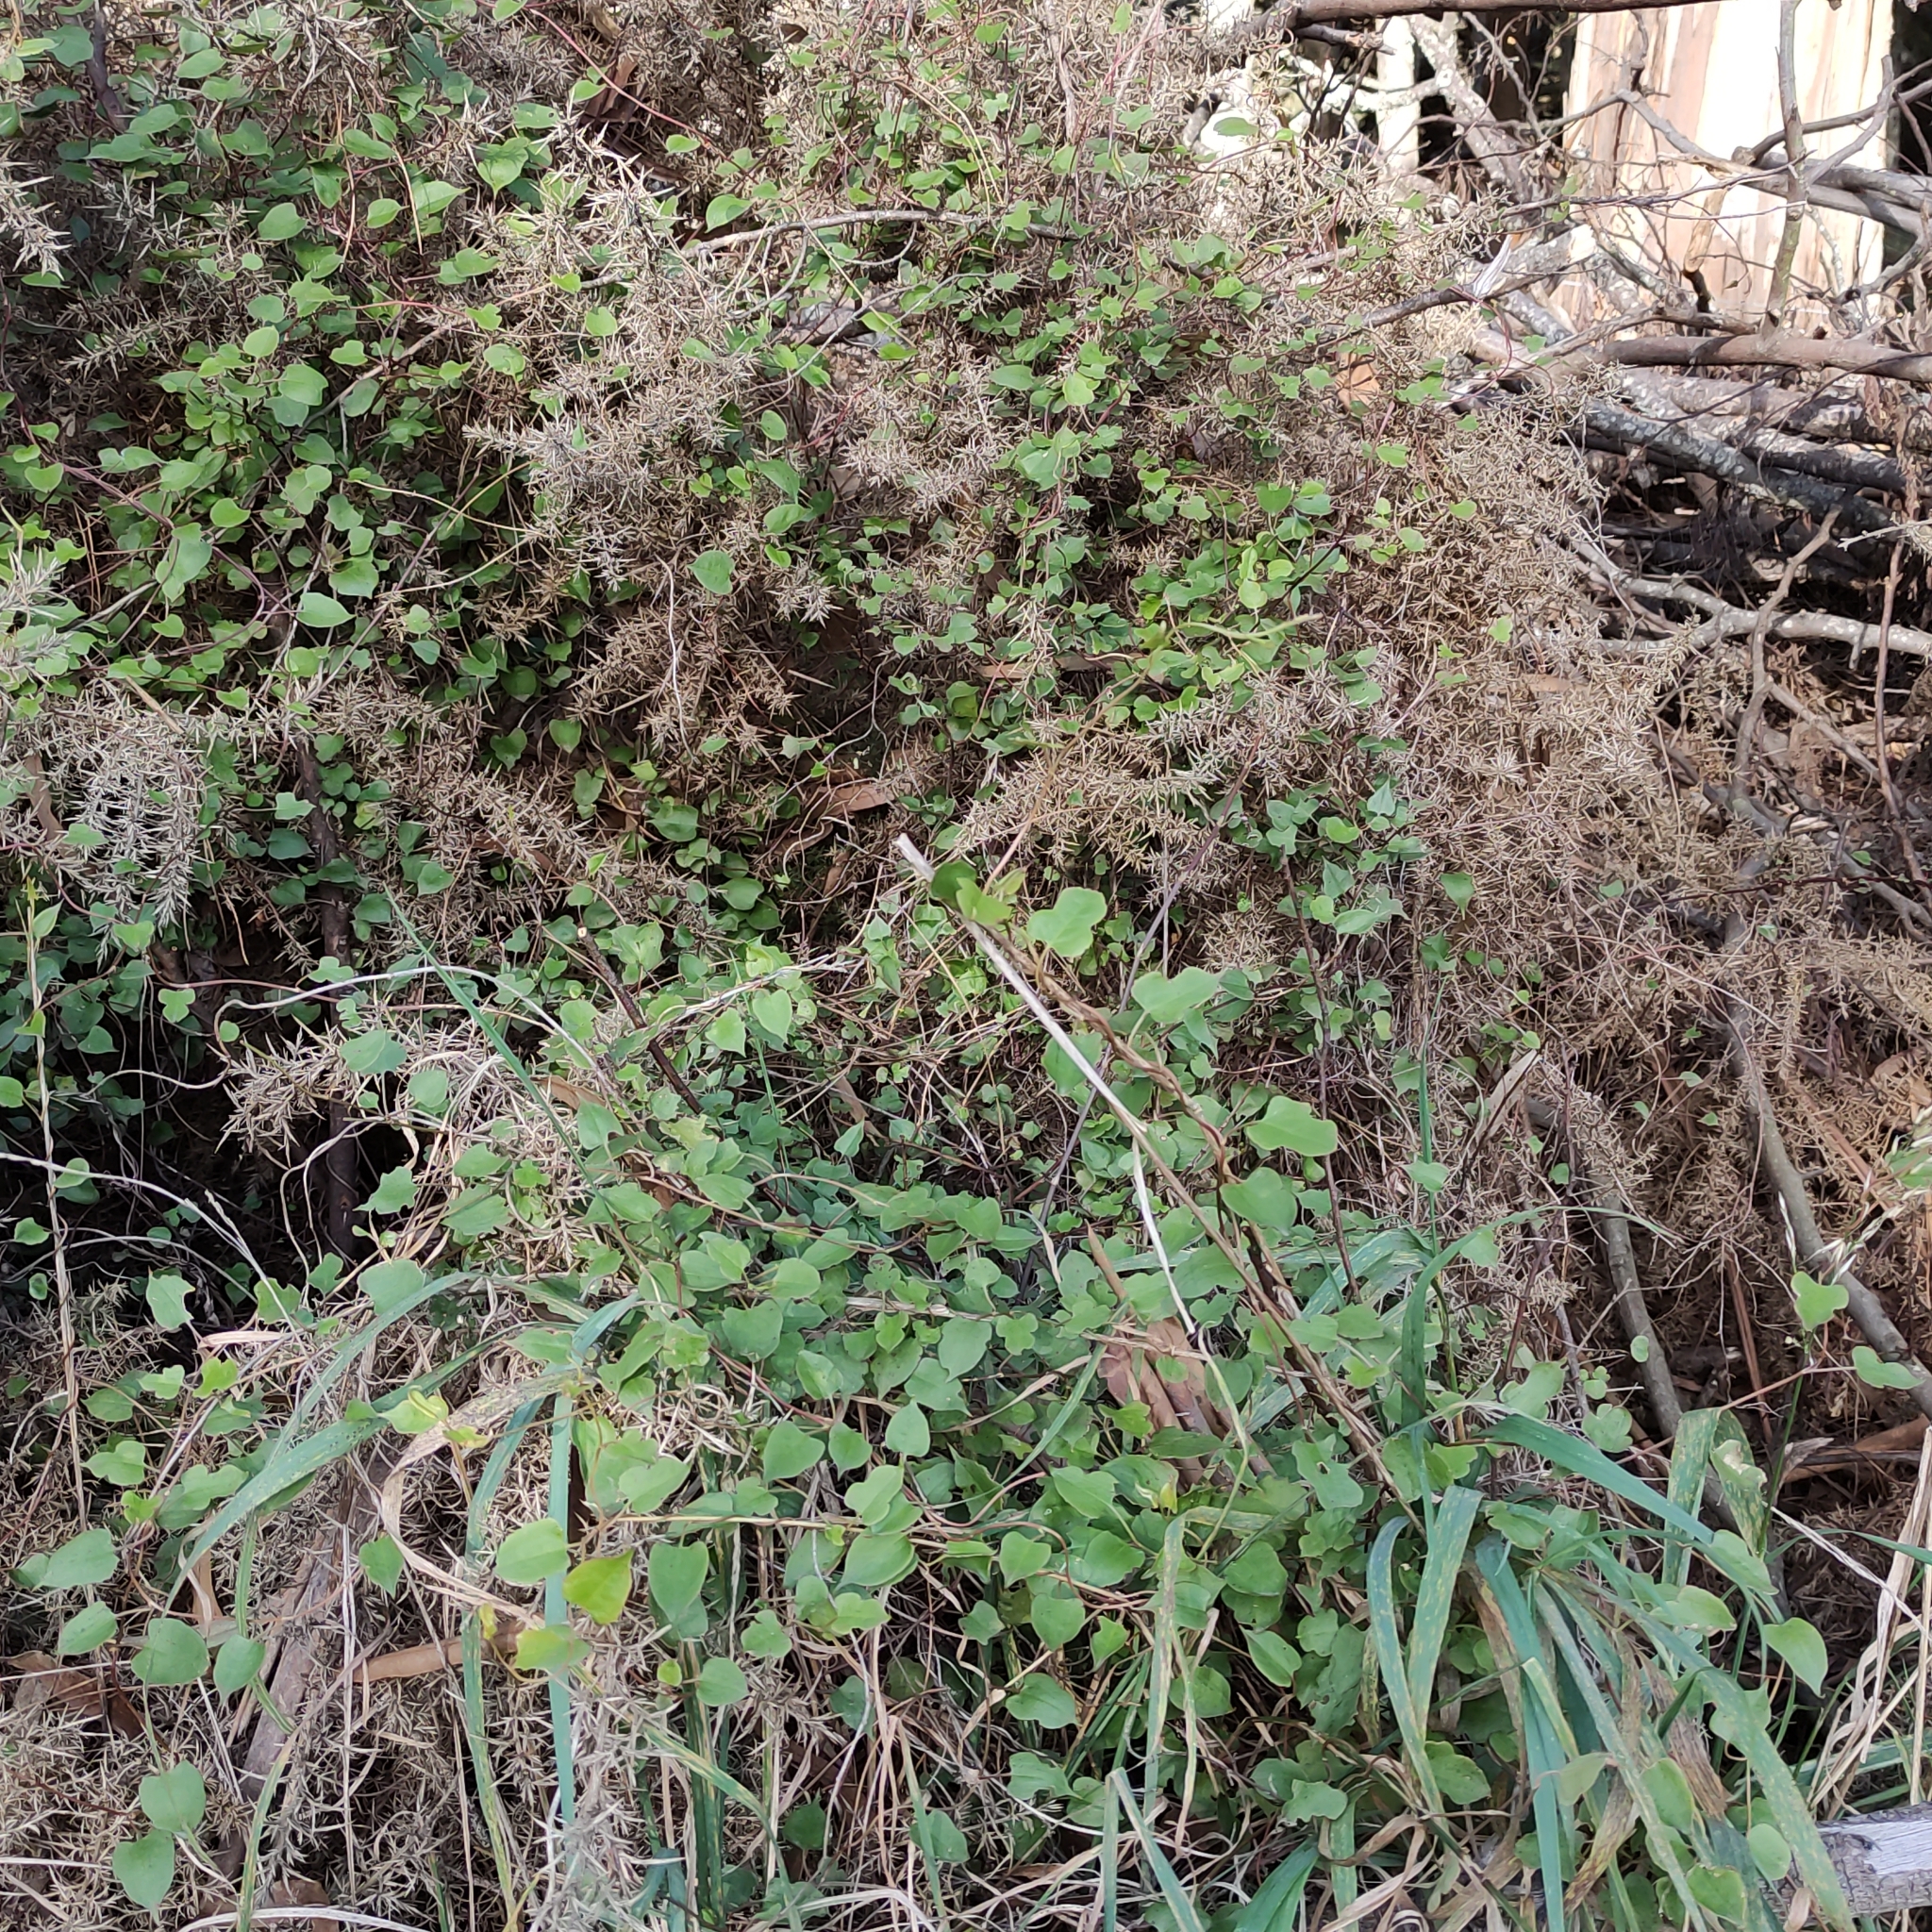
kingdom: Plantae
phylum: Tracheophyta
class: Magnoliopsida
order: Caryophyllales
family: Polygonaceae
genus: Muehlenbeckia
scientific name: Muehlenbeckia australis
